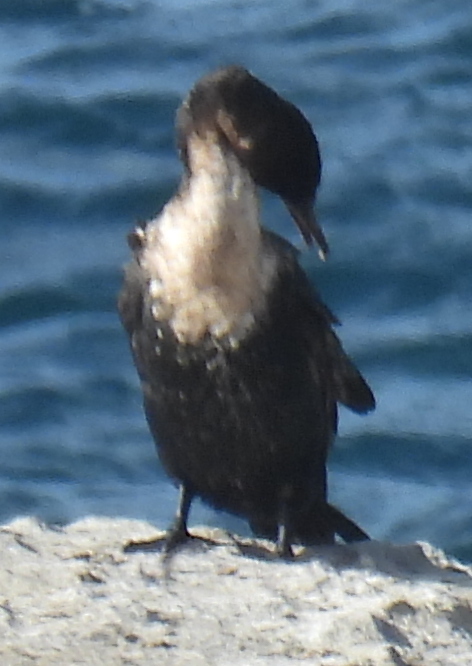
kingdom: Animalia
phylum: Chordata
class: Aves
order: Suliformes
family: Phalacrocoracidae
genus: Phalacrocorax
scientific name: Phalacrocorax carbo
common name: Great cormorant
